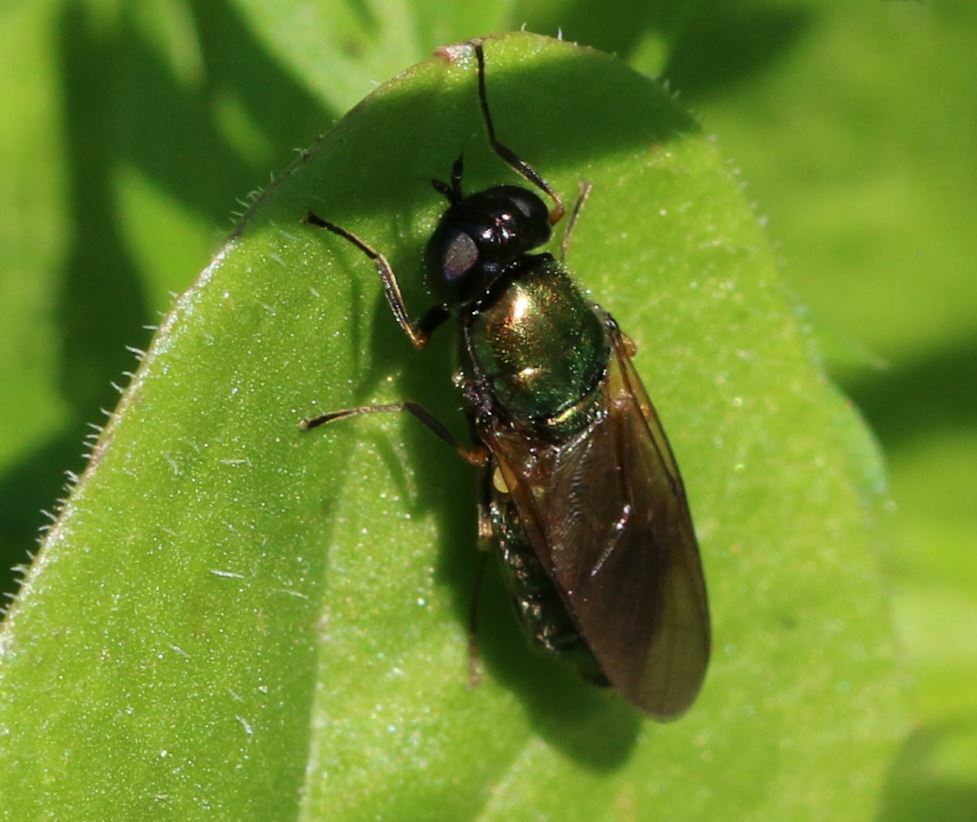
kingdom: Animalia
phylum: Arthropoda
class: Insecta
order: Diptera
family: Stratiomyidae
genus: Chloromyia
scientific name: Chloromyia formosa
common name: Soldier fly
